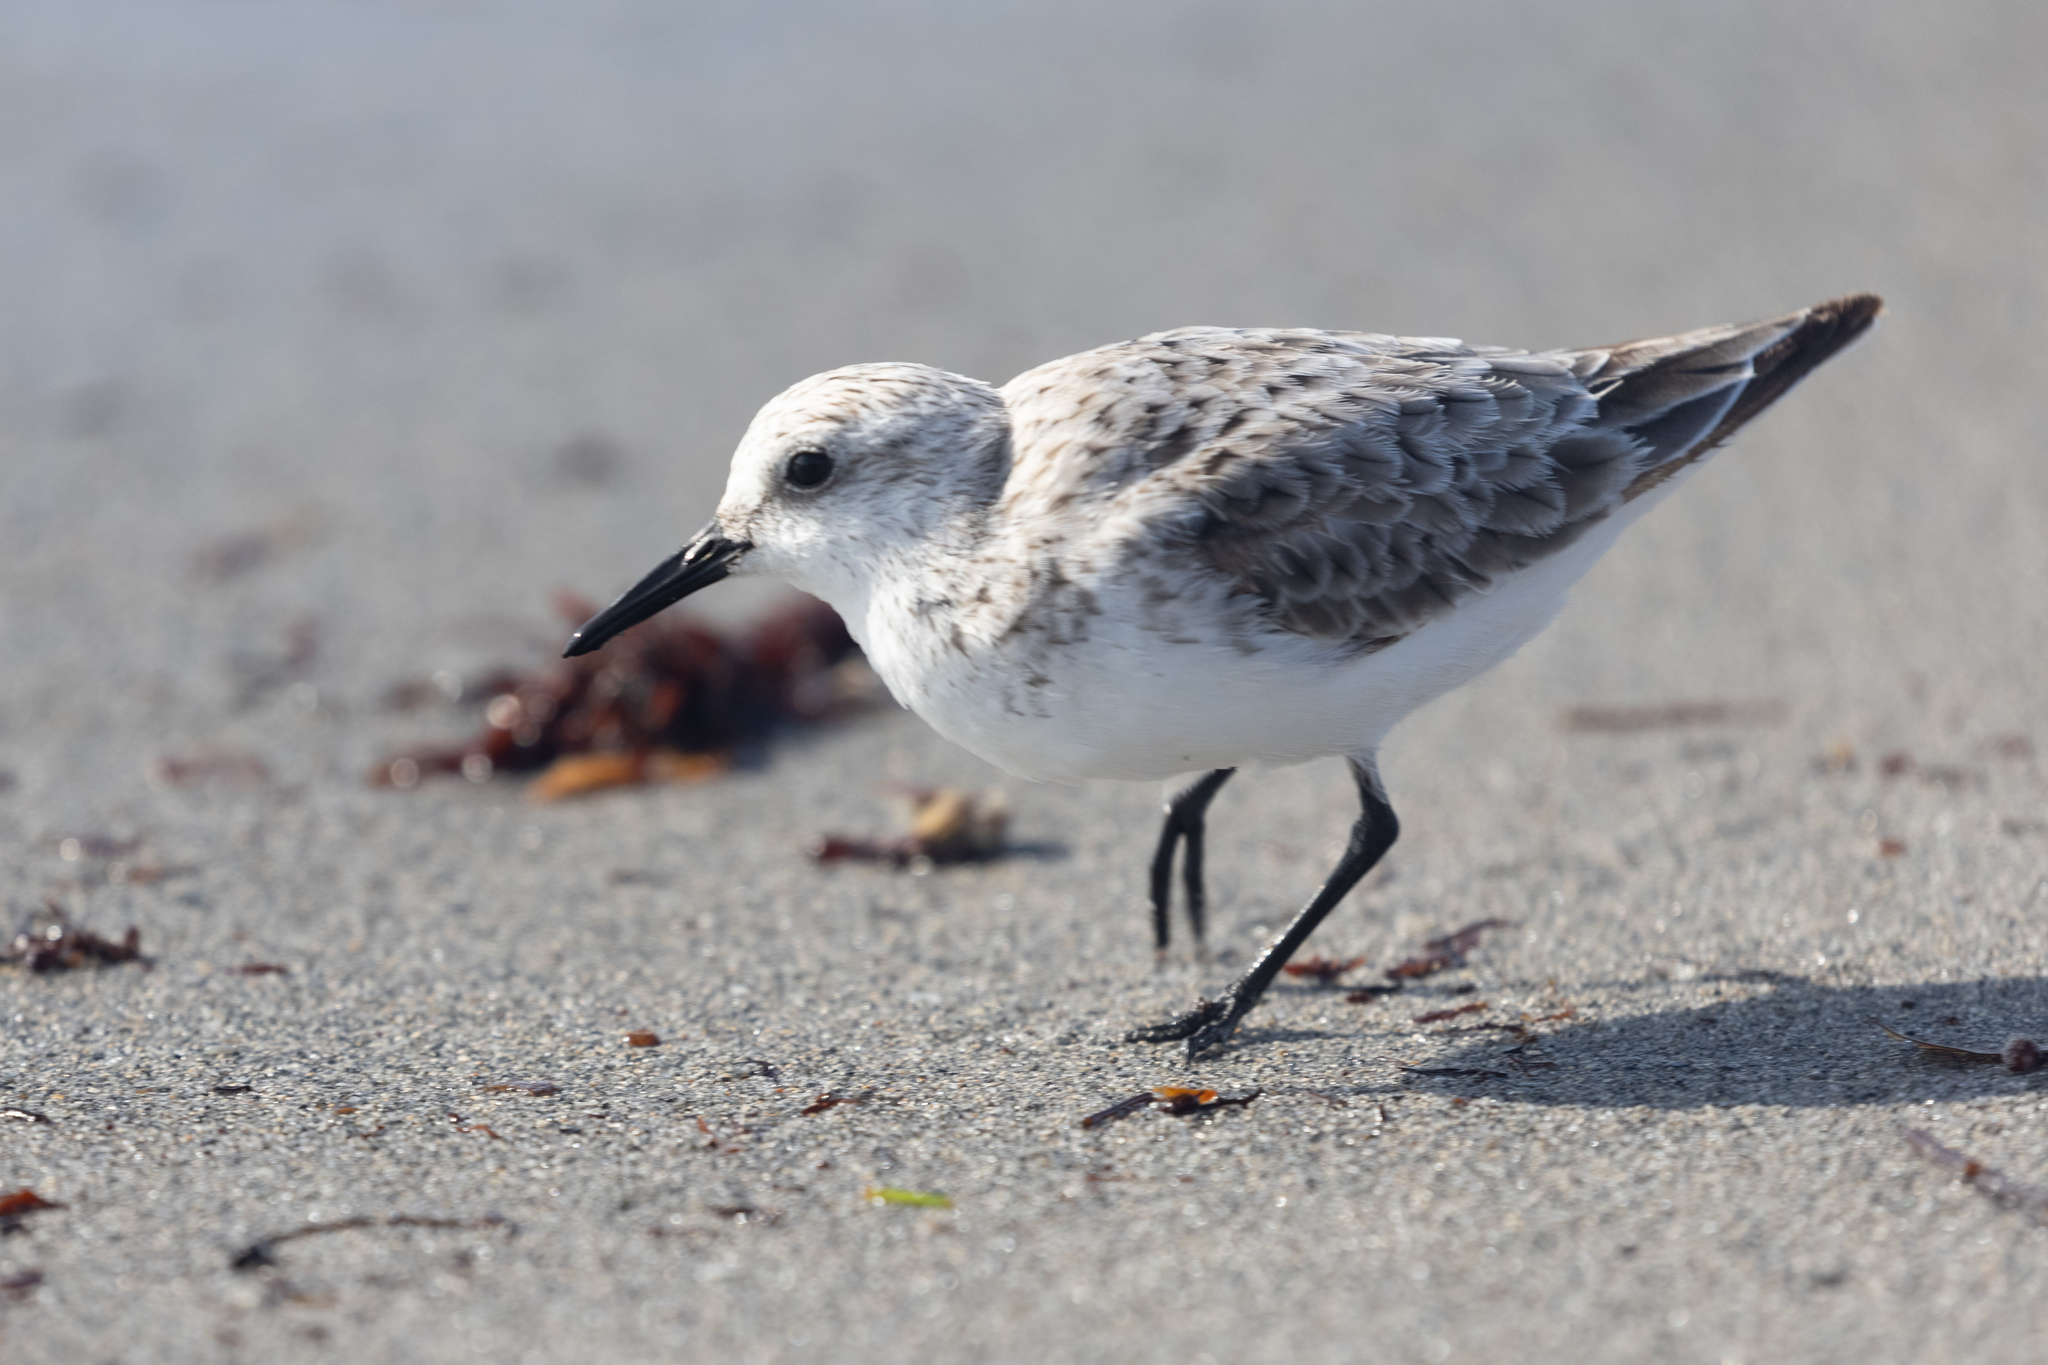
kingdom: Animalia
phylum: Chordata
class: Aves
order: Charadriiformes
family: Scolopacidae
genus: Calidris
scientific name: Calidris alba
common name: Sanderling
